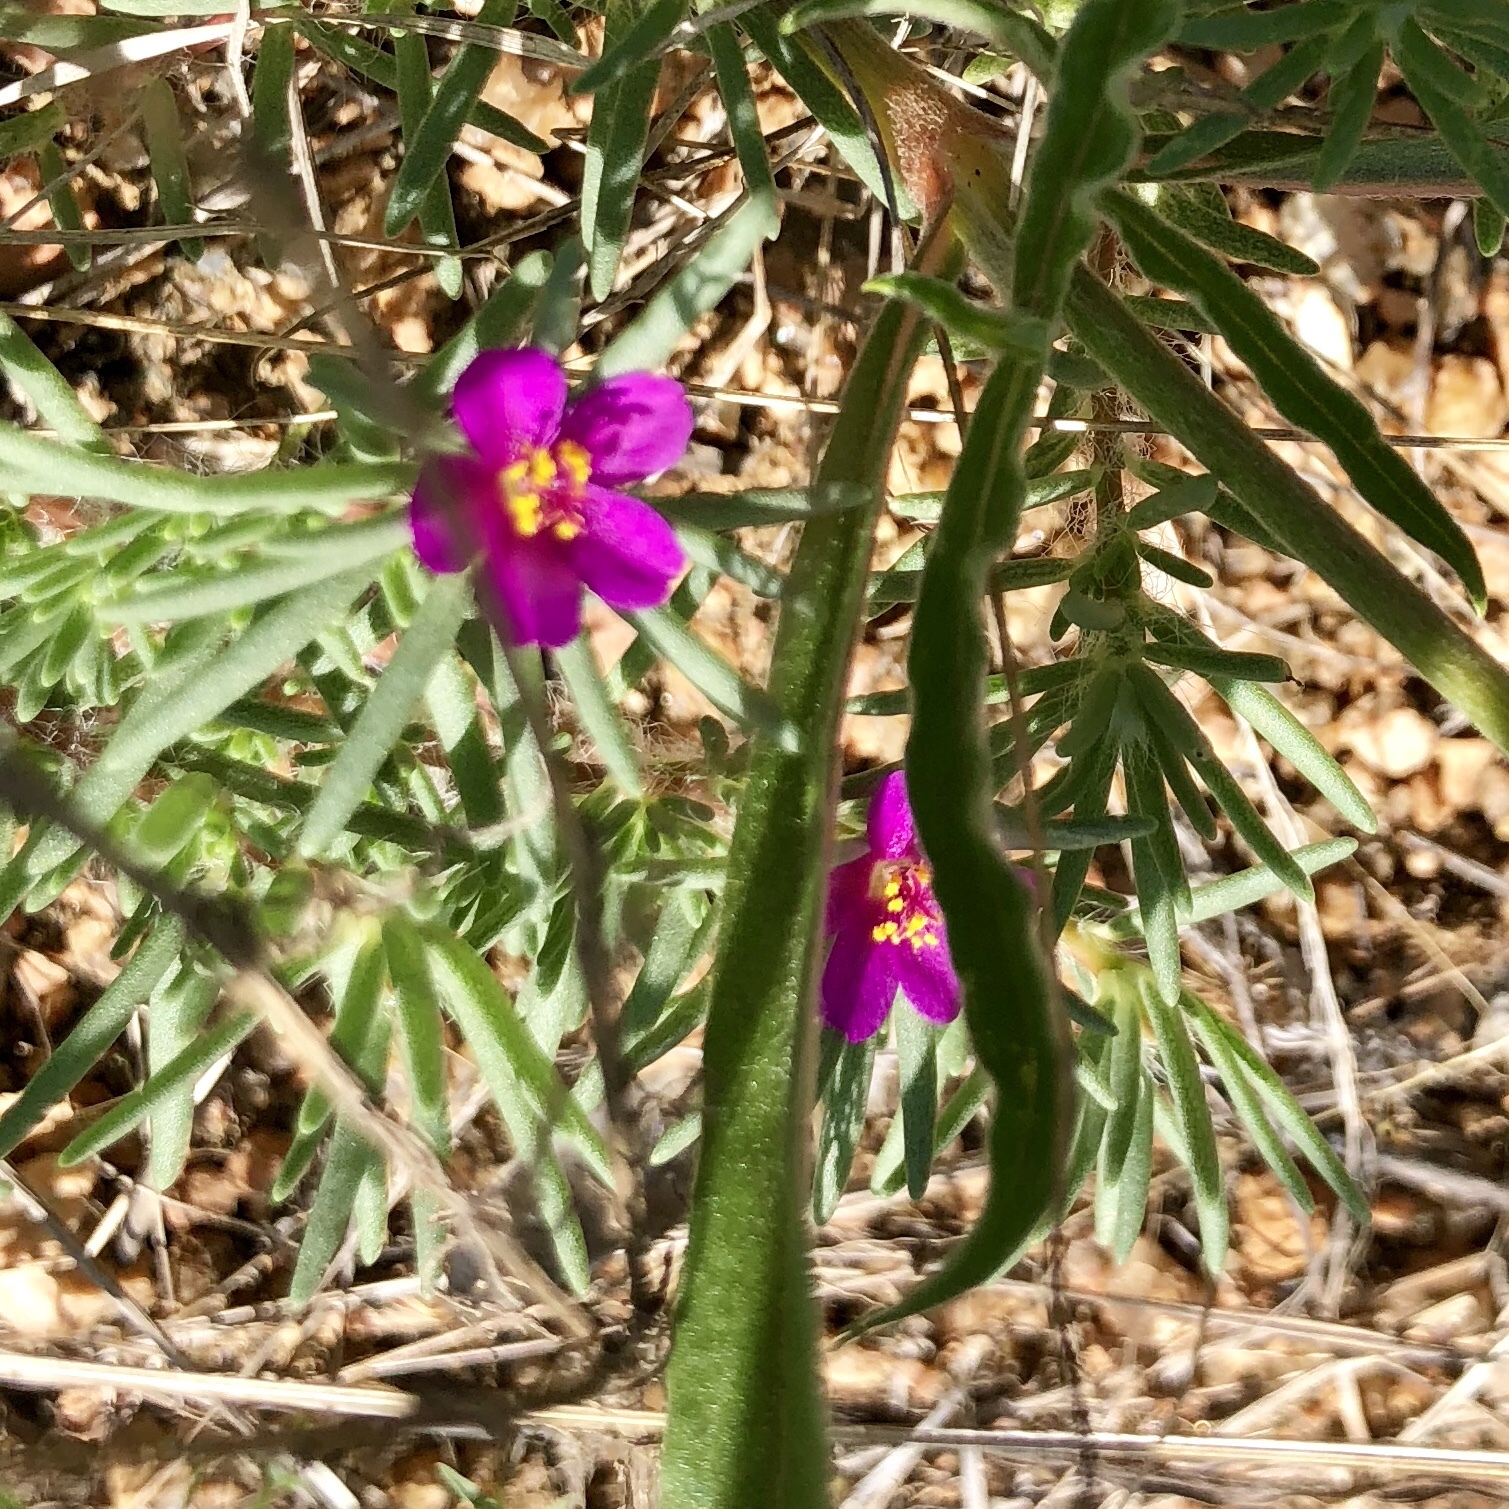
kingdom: Plantae
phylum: Tracheophyta
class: Magnoliopsida
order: Caryophyllales
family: Portulacaceae
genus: Portulaca
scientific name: Portulaca pilosa
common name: Kiss me quick
